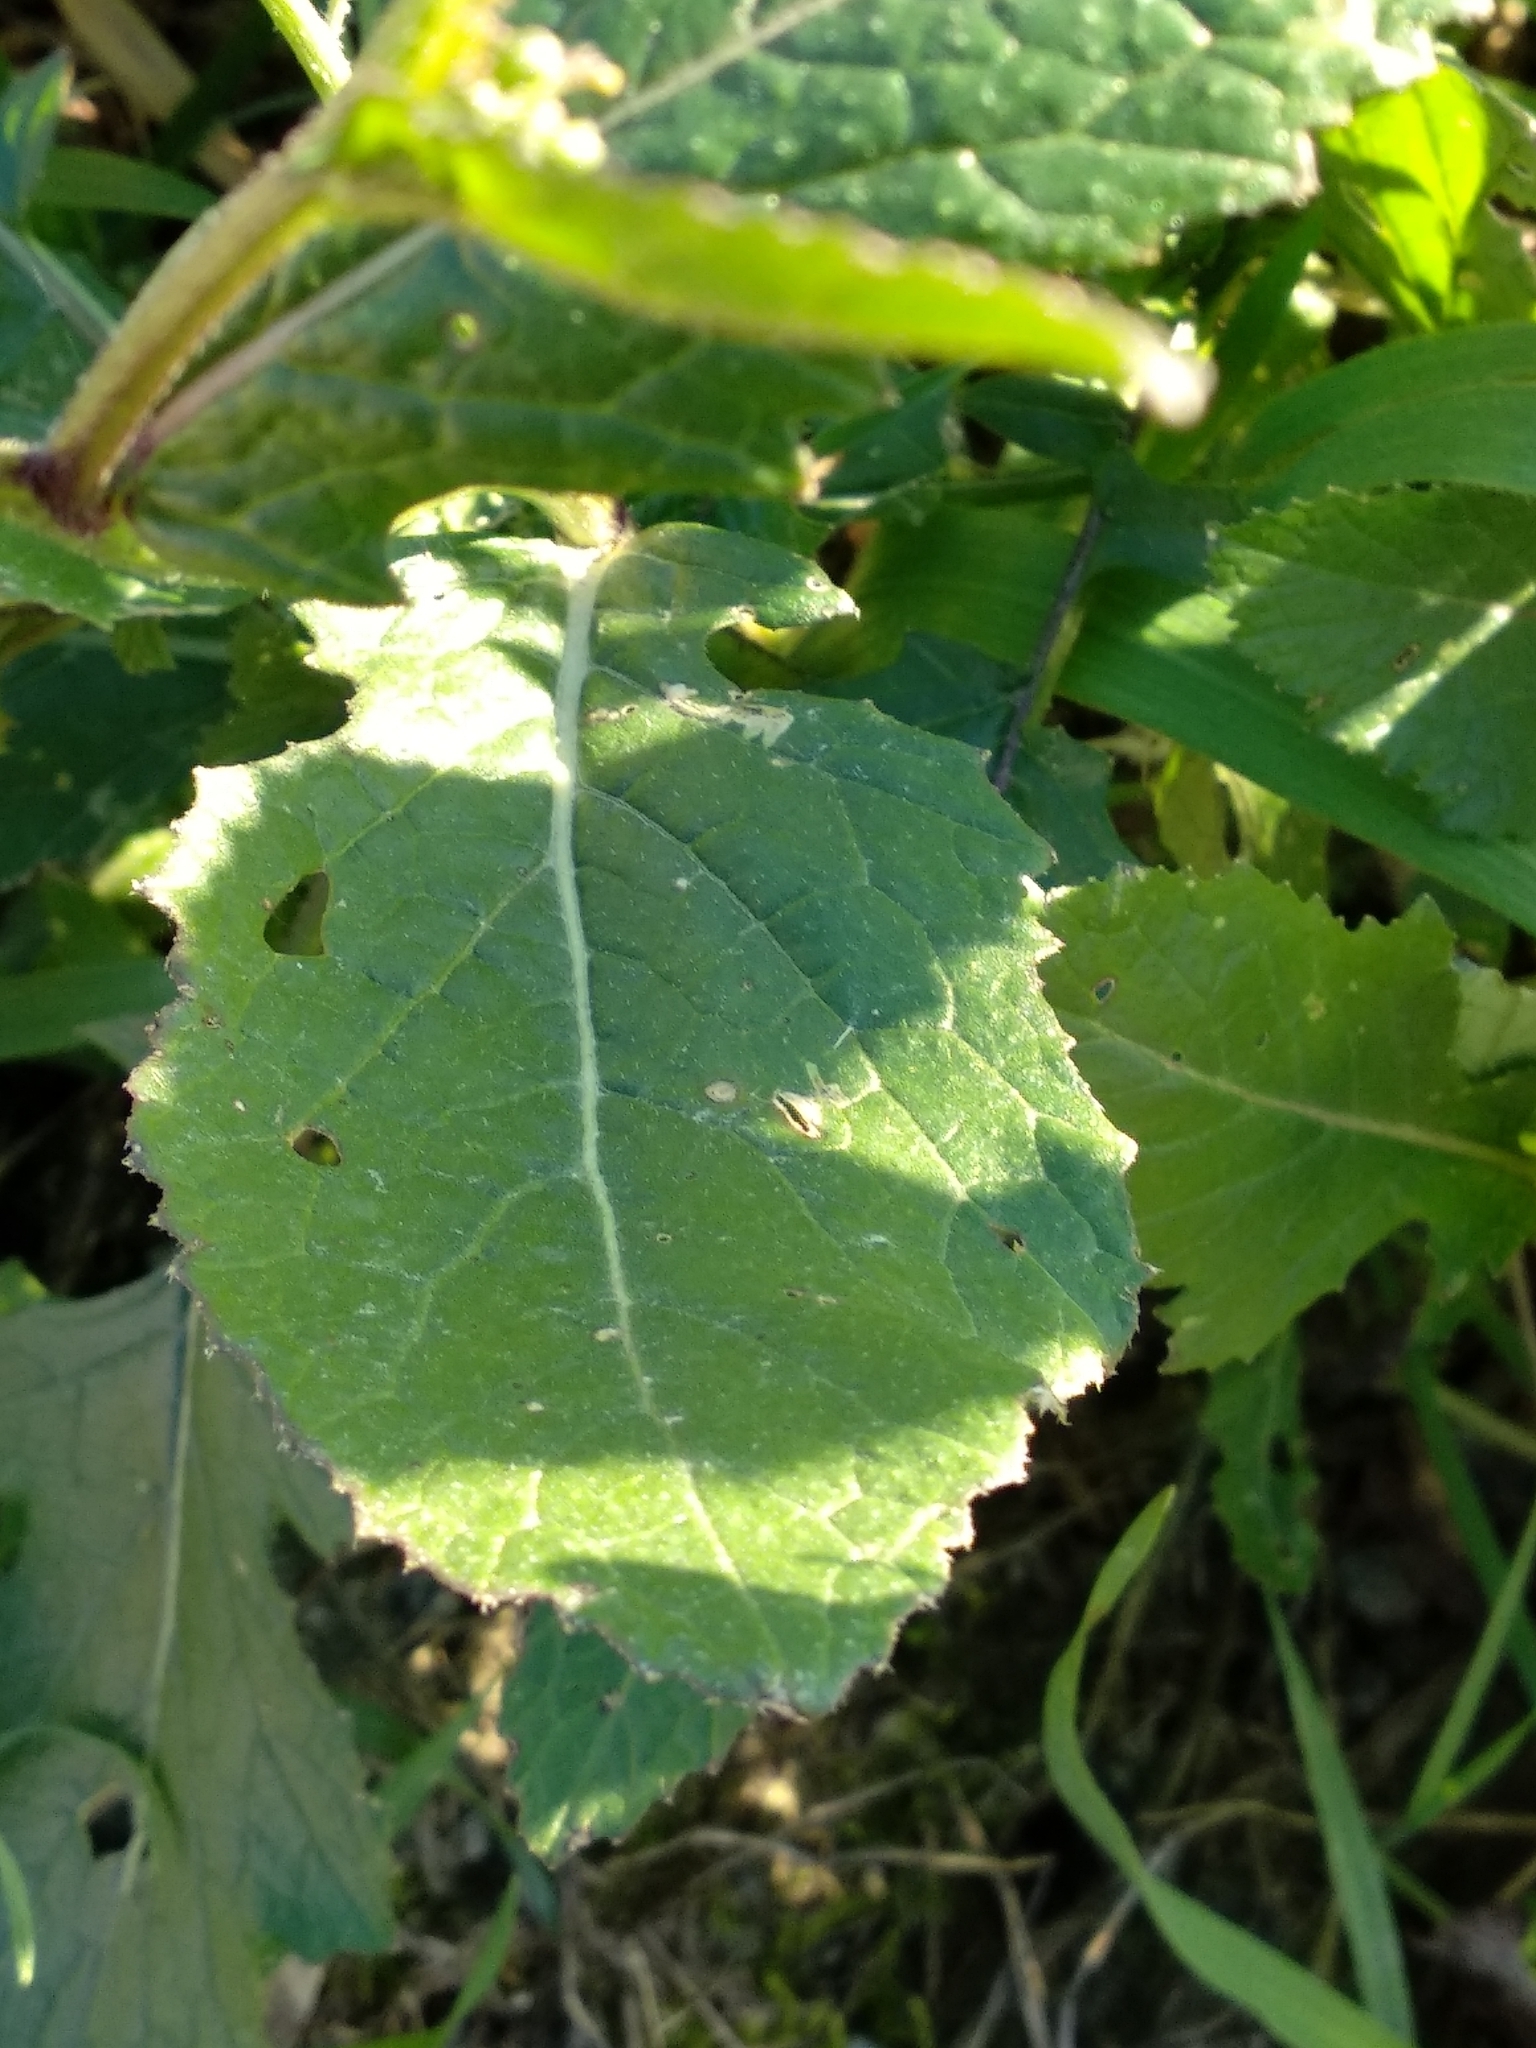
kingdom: Plantae
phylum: Tracheophyta
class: Magnoliopsida
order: Brassicales
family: Brassicaceae
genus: Sinapis
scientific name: Sinapis arvensis
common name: Charlock
